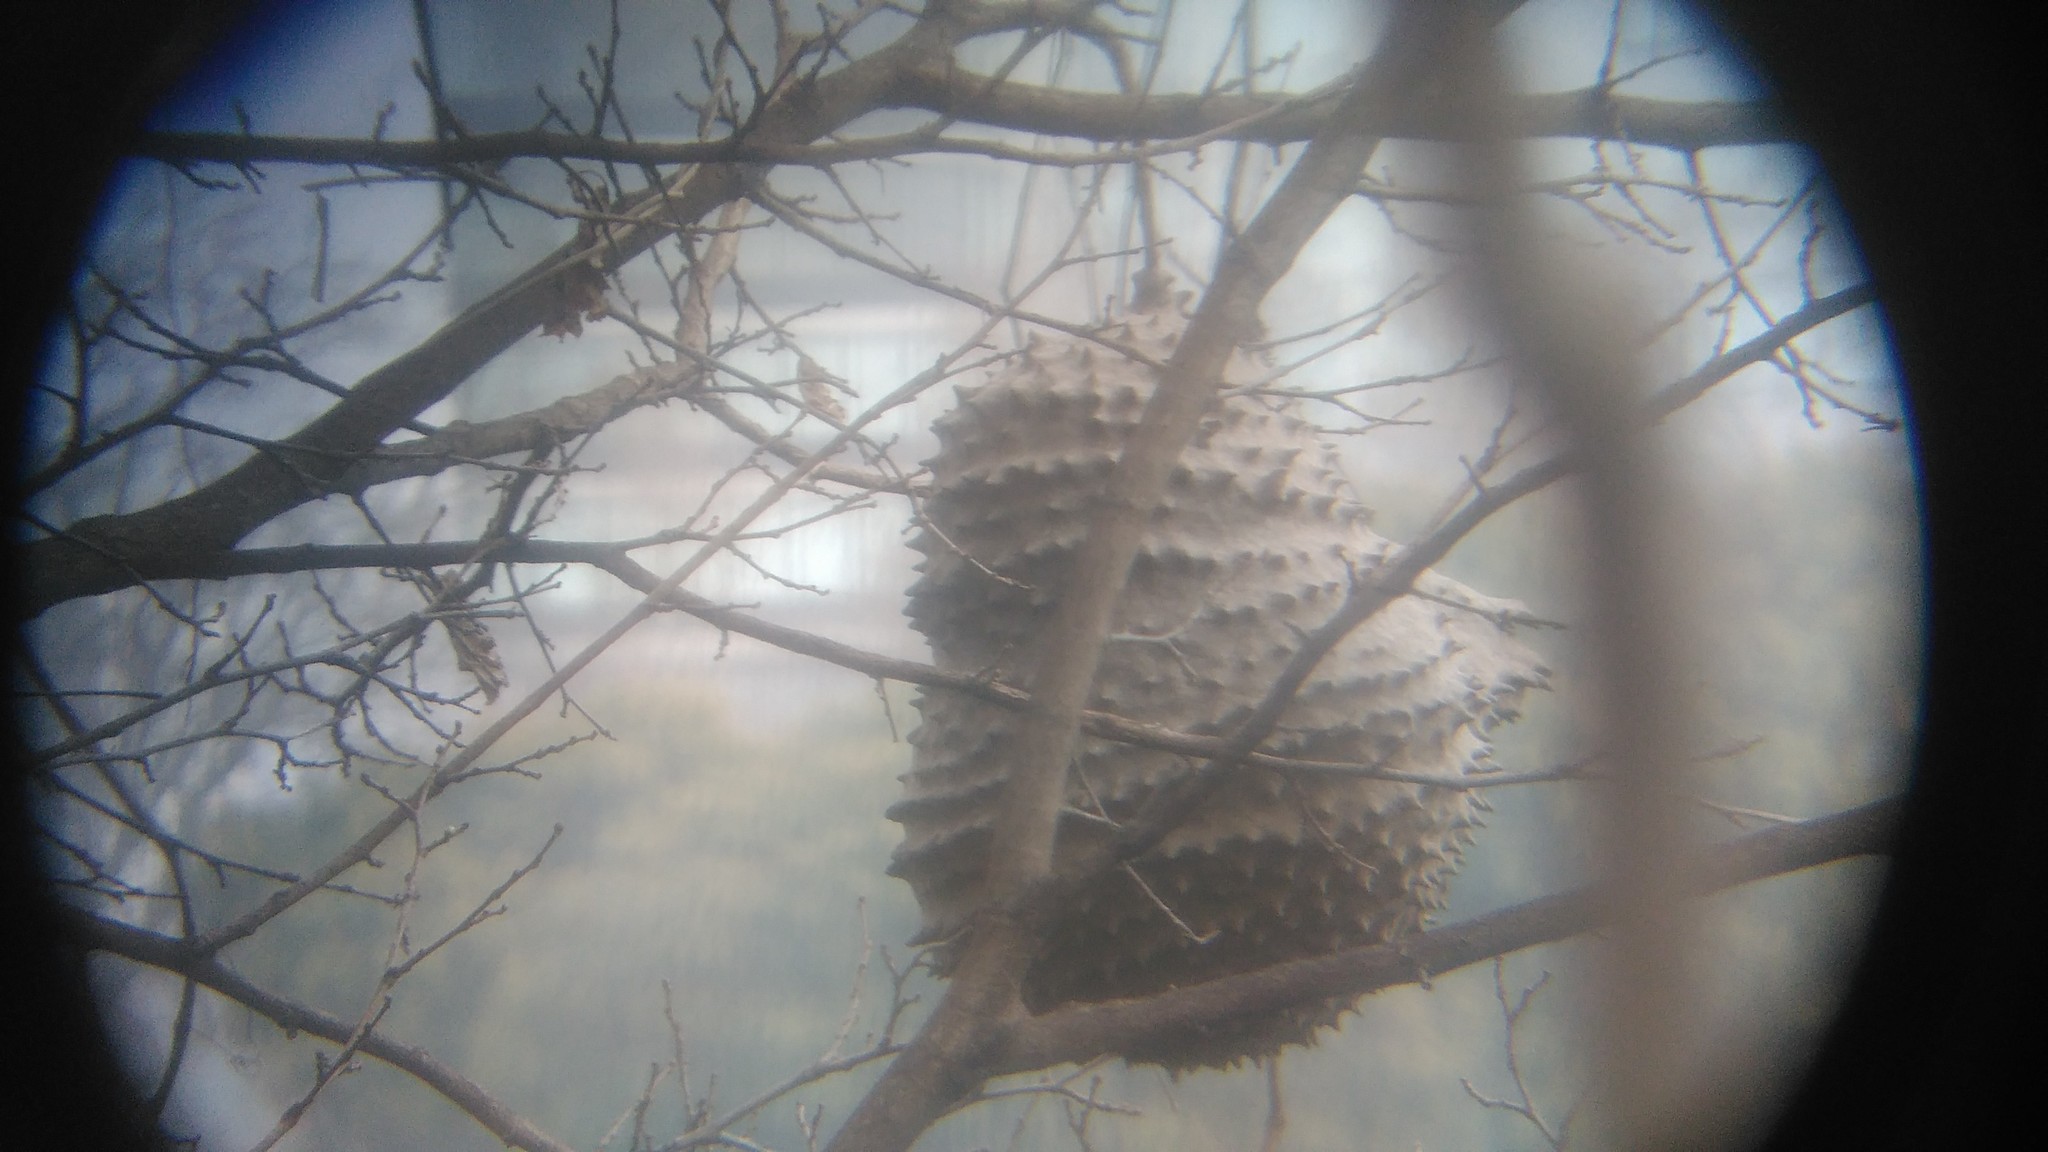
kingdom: Animalia
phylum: Arthropoda
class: Insecta
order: Hymenoptera
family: Eumenidae
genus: Polybia
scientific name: Polybia scutellaris
